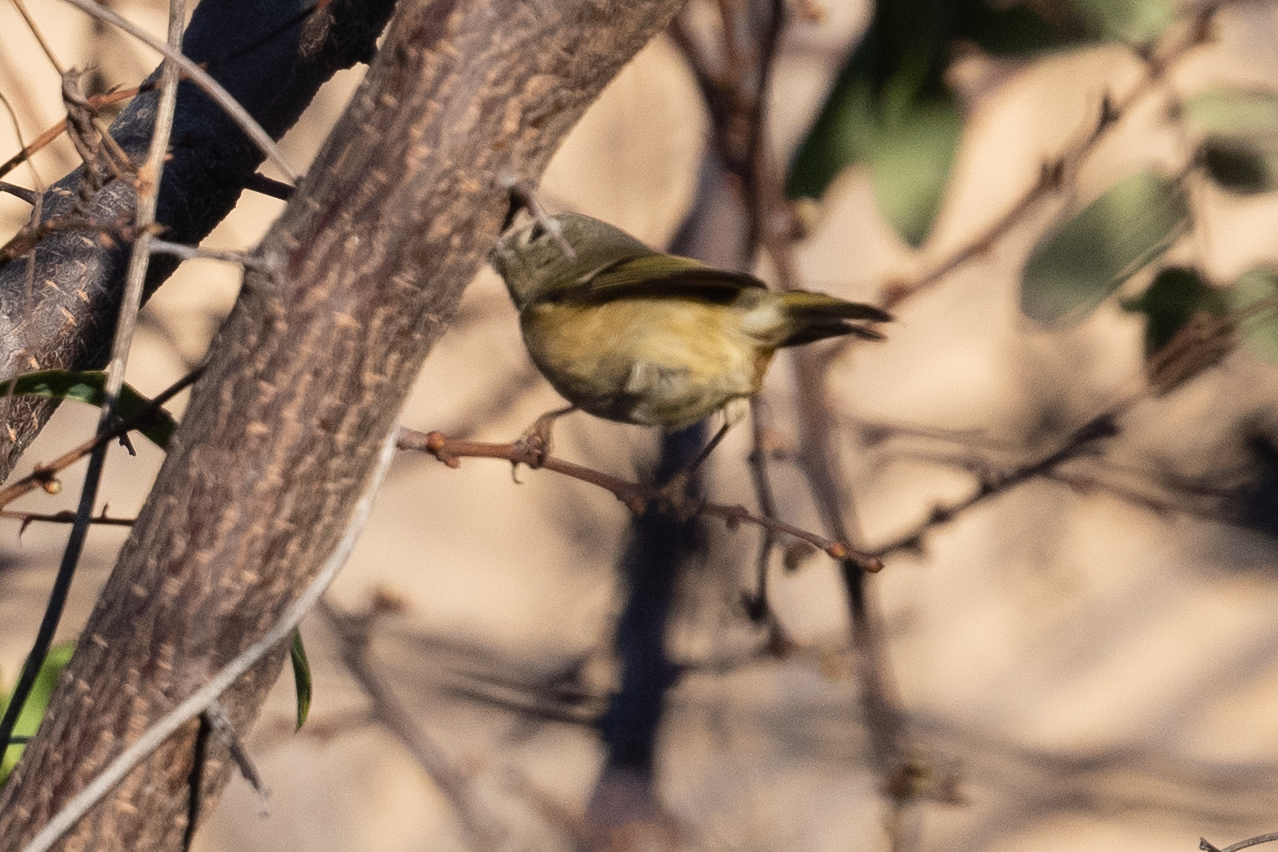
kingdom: Animalia
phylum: Chordata
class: Aves
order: Passeriformes
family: Regulidae
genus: Regulus
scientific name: Regulus calendula
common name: Ruby-crowned kinglet
